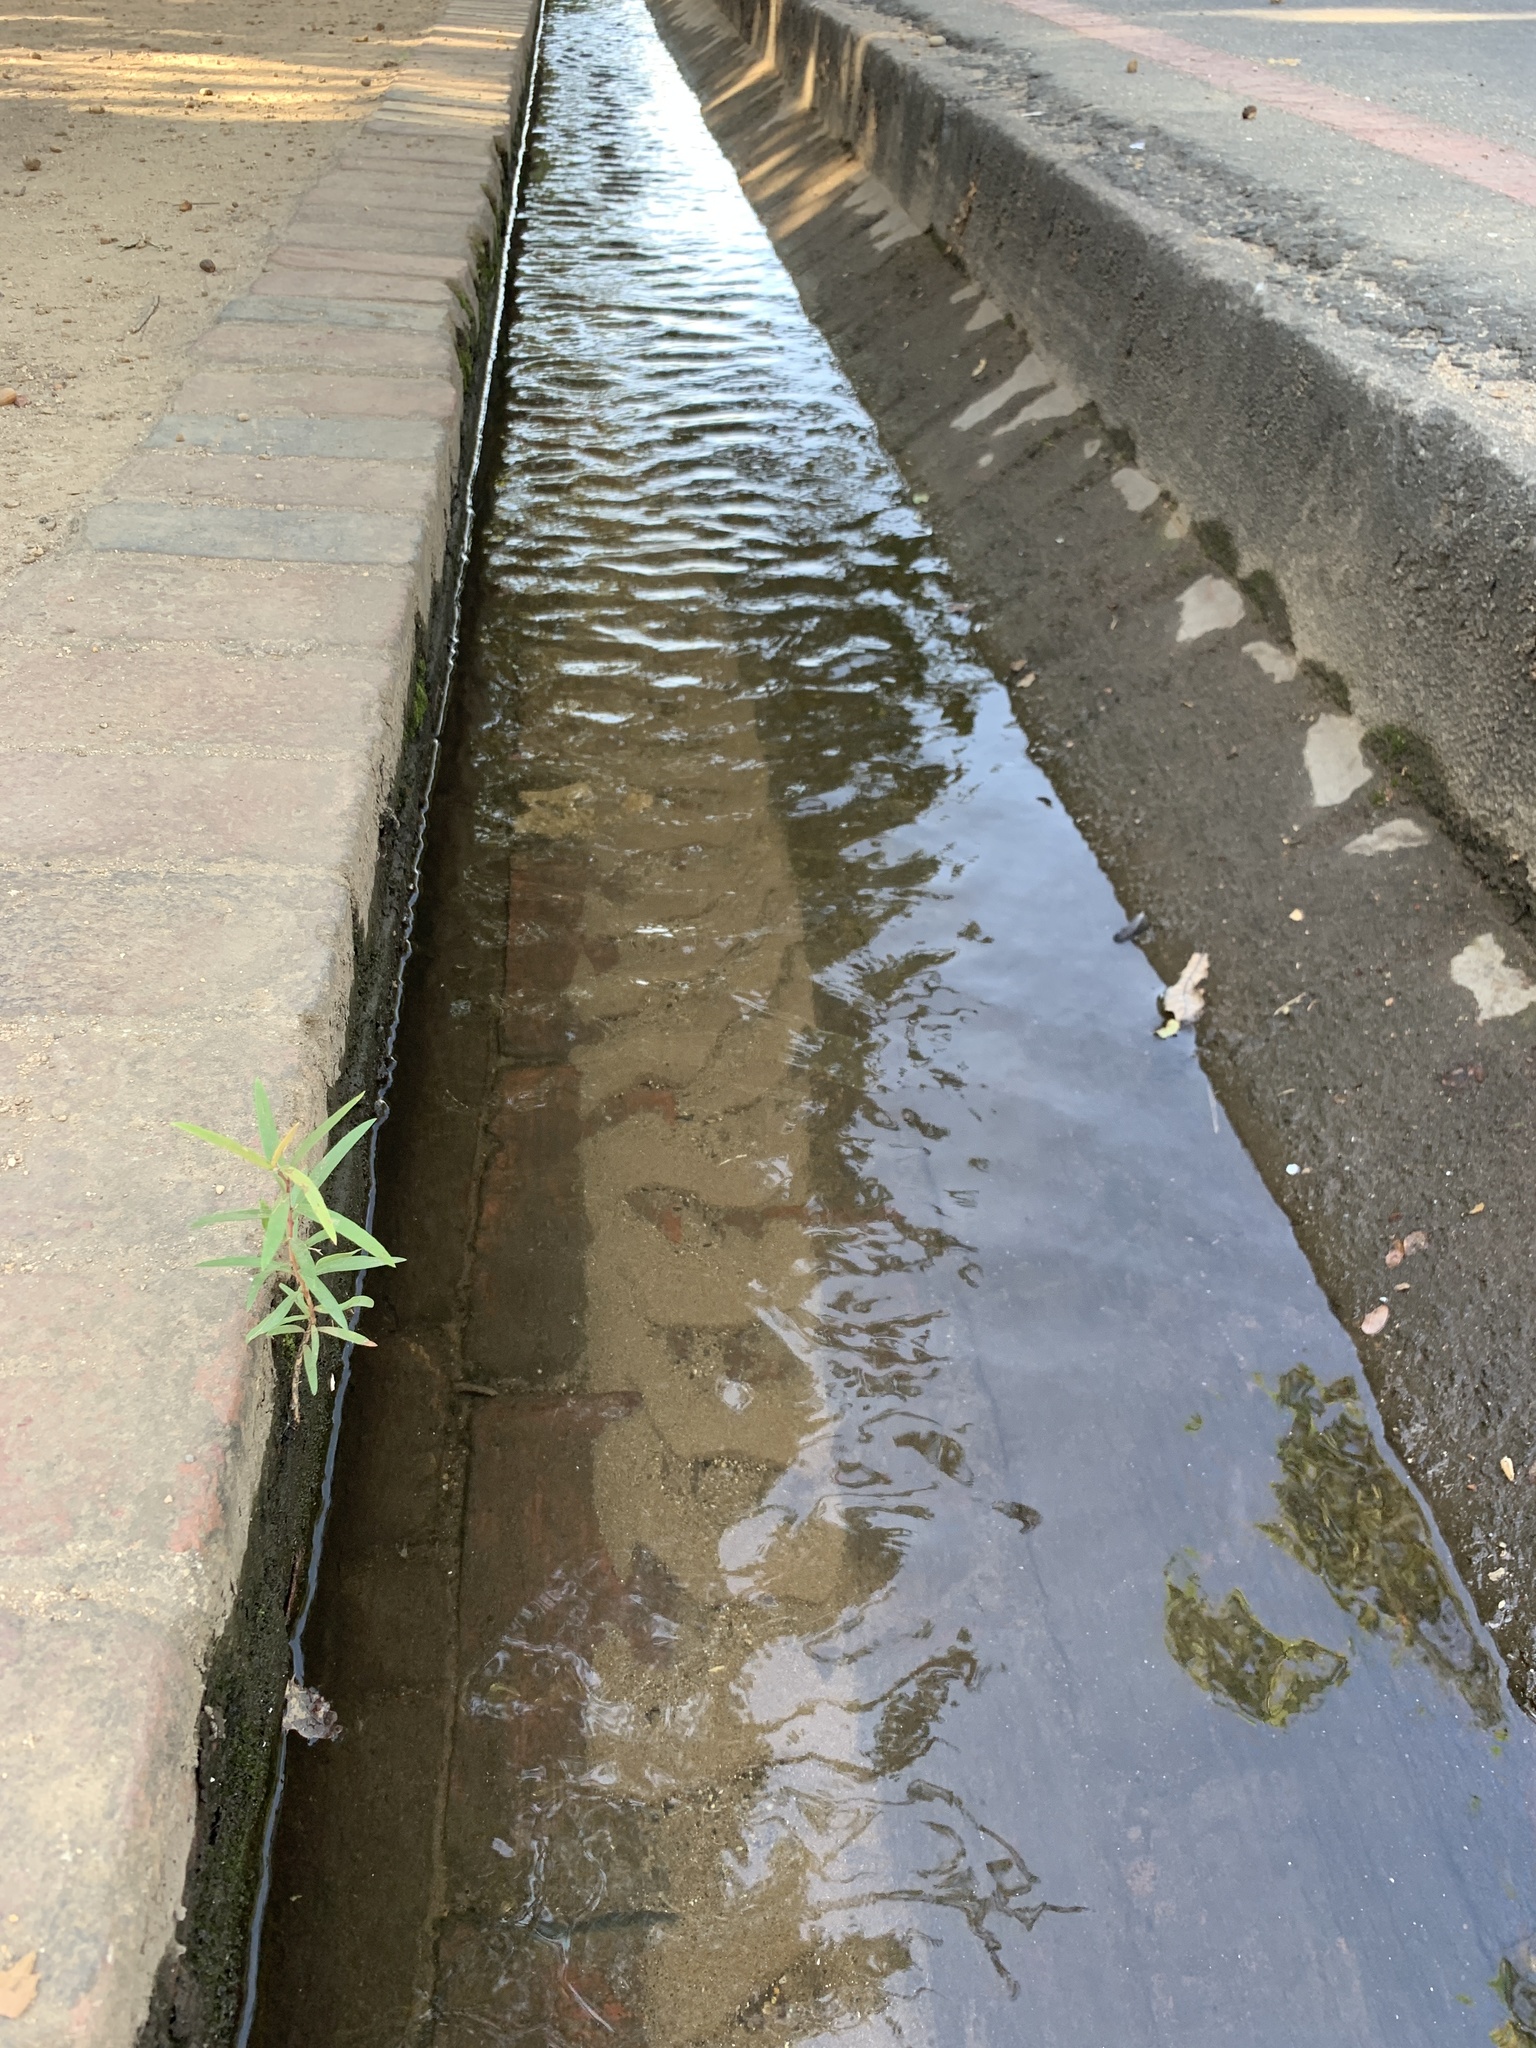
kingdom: Plantae
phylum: Tracheophyta
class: Magnoliopsida
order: Myrtales
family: Myrtaceae
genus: Callistemon
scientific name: Callistemon viminalis
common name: Drooping bottlebrush
